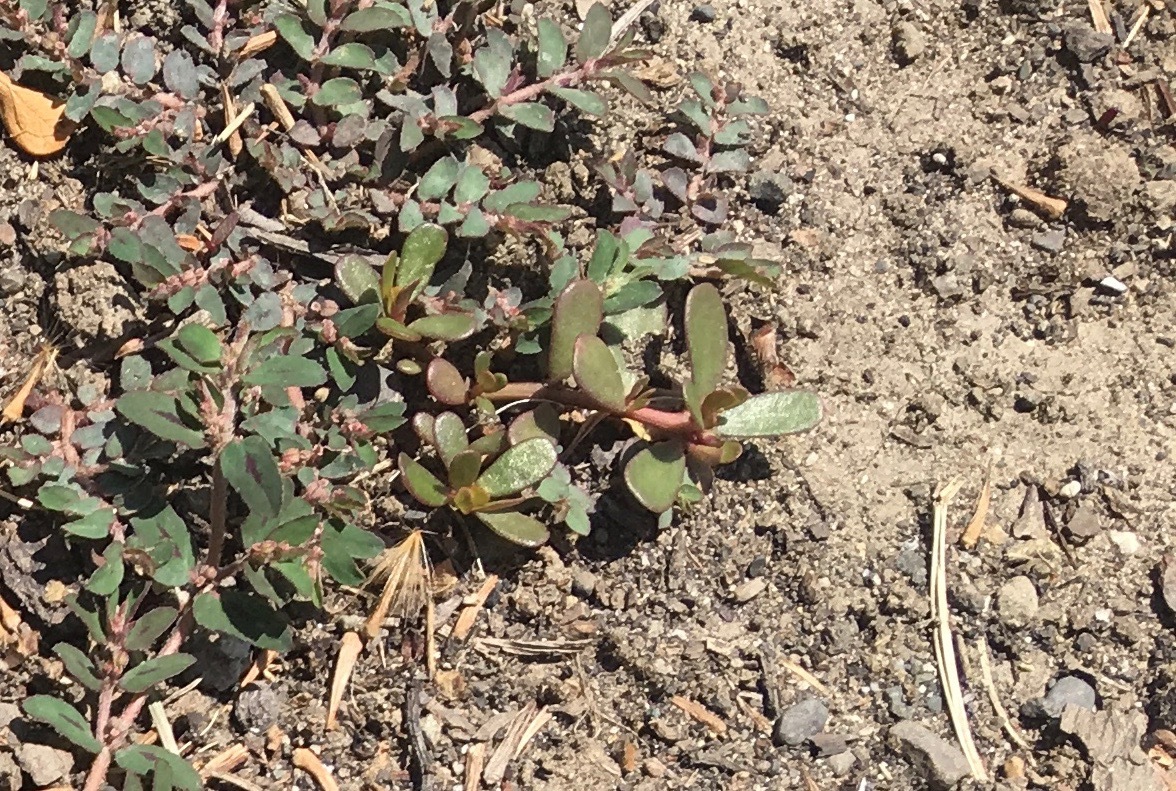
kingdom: Plantae
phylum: Tracheophyta
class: Magnoliopsida
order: Caryophyllales
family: Portulacaceae
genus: Portulaca
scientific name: Portulaca oleracea
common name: Common purslane
